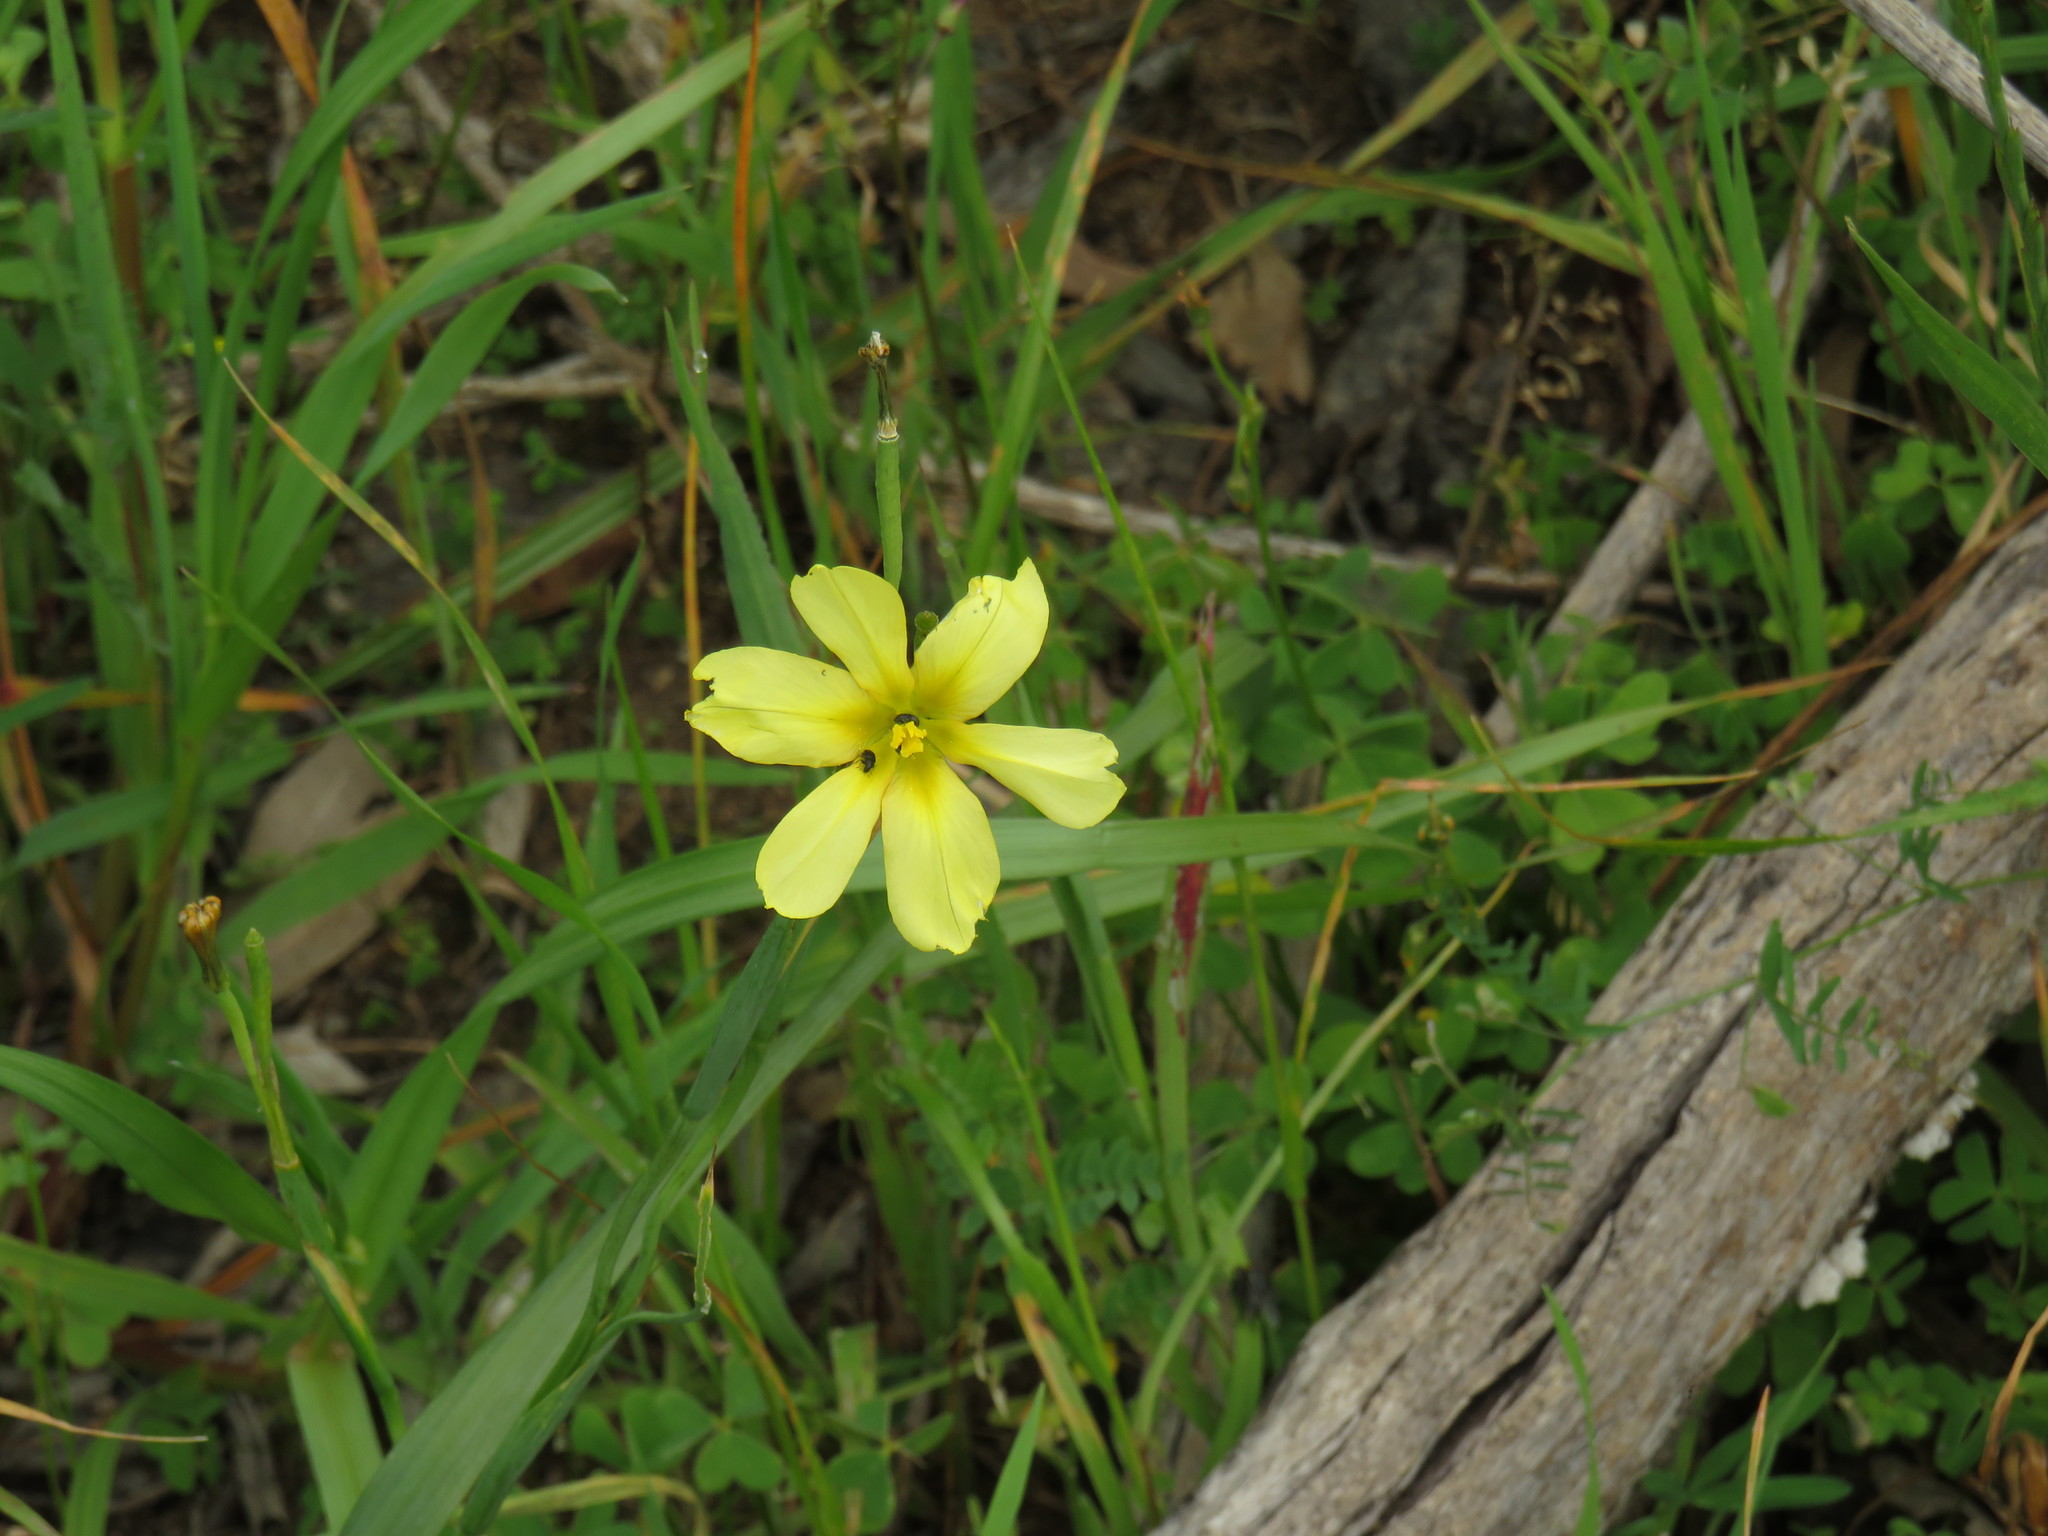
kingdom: Plantae
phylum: Tracheophyta
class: Liliopsida
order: Asparagales
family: Iridaceae
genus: Moraea
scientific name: Moraea collina
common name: Cape-tulip
